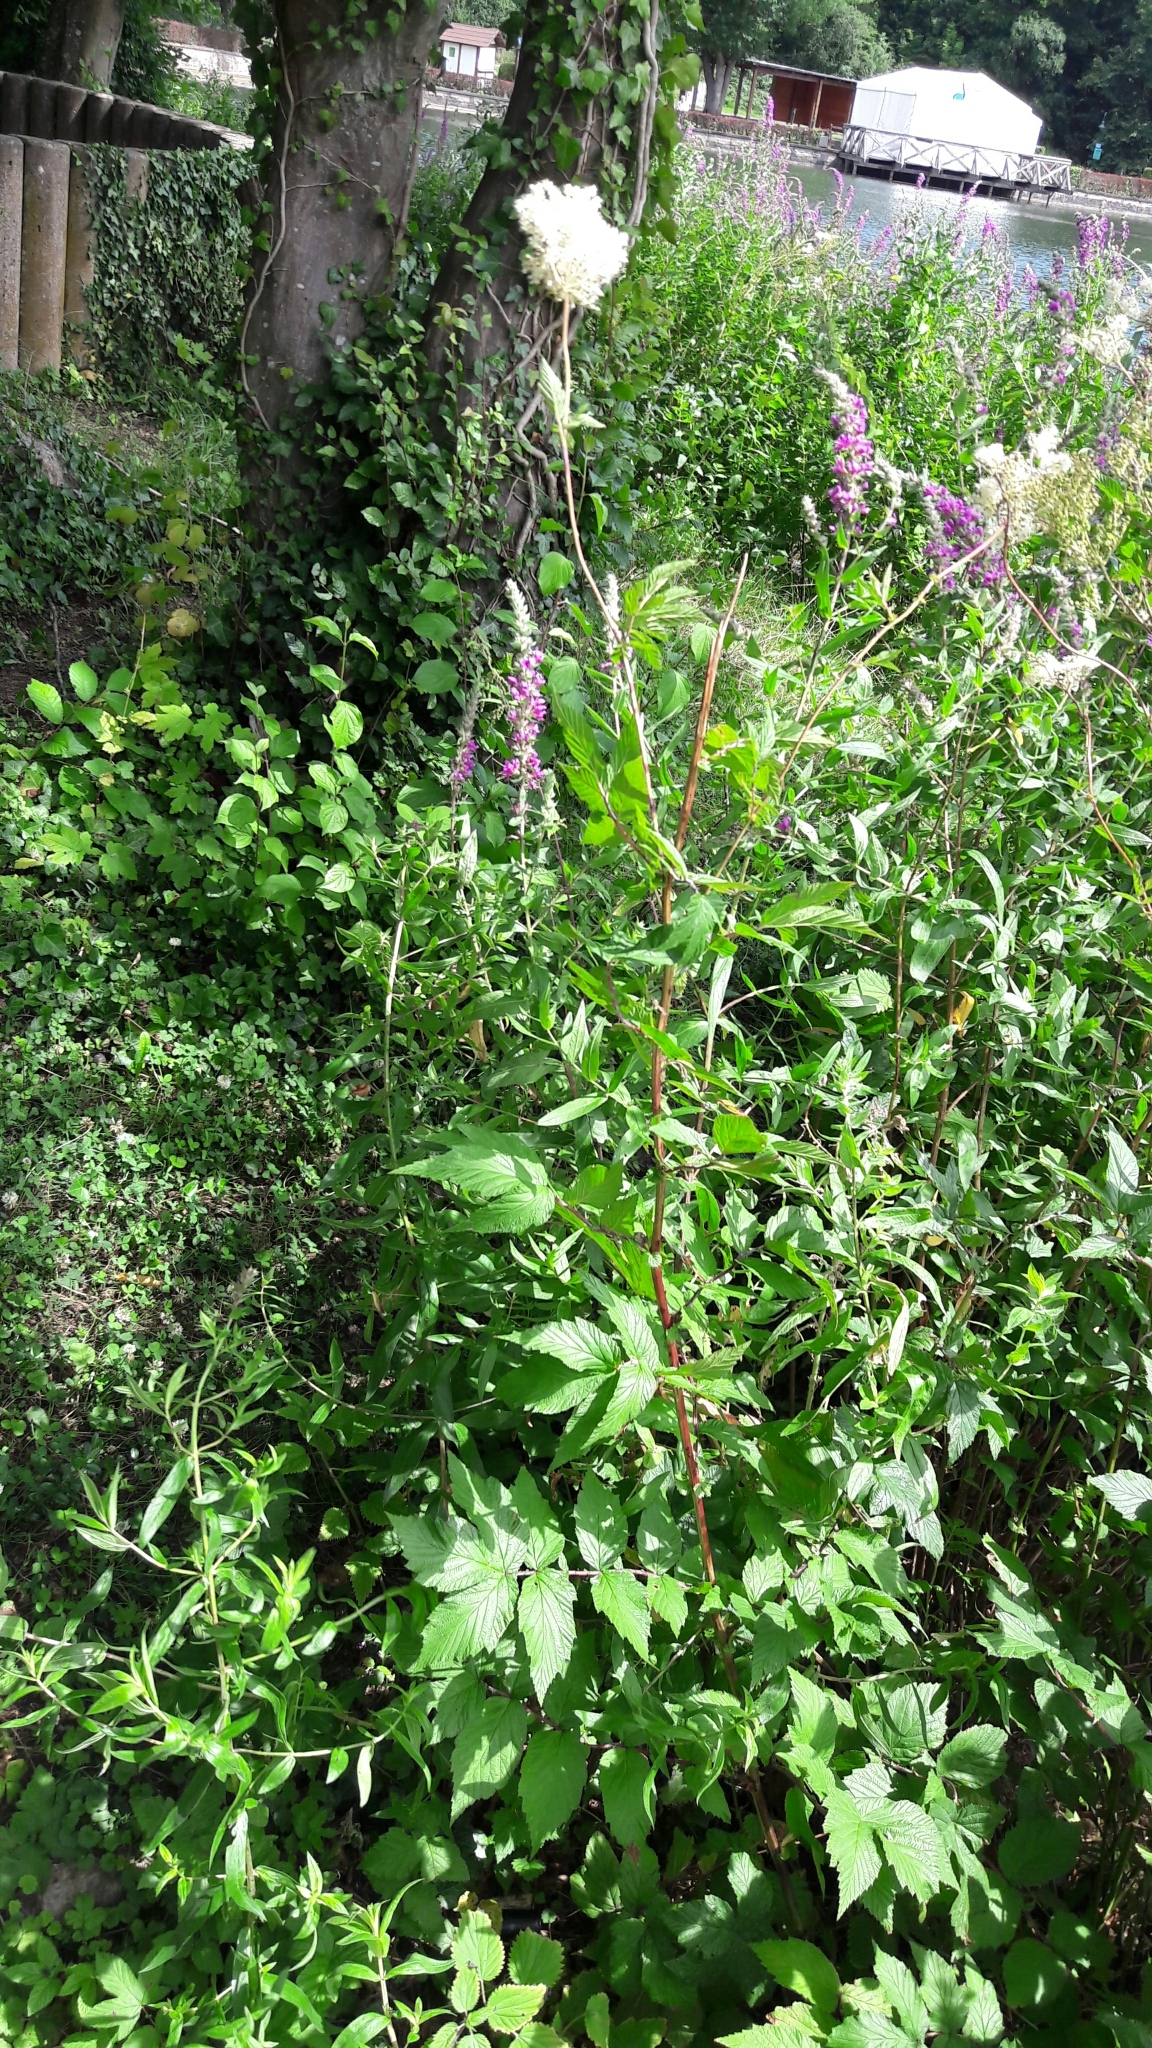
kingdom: Plantae
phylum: Tracheophyta
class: Magnoliopsida
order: Rosales
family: Rosaceae
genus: Filipendula
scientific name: Filipendula ulmaria
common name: Meadowsweet
